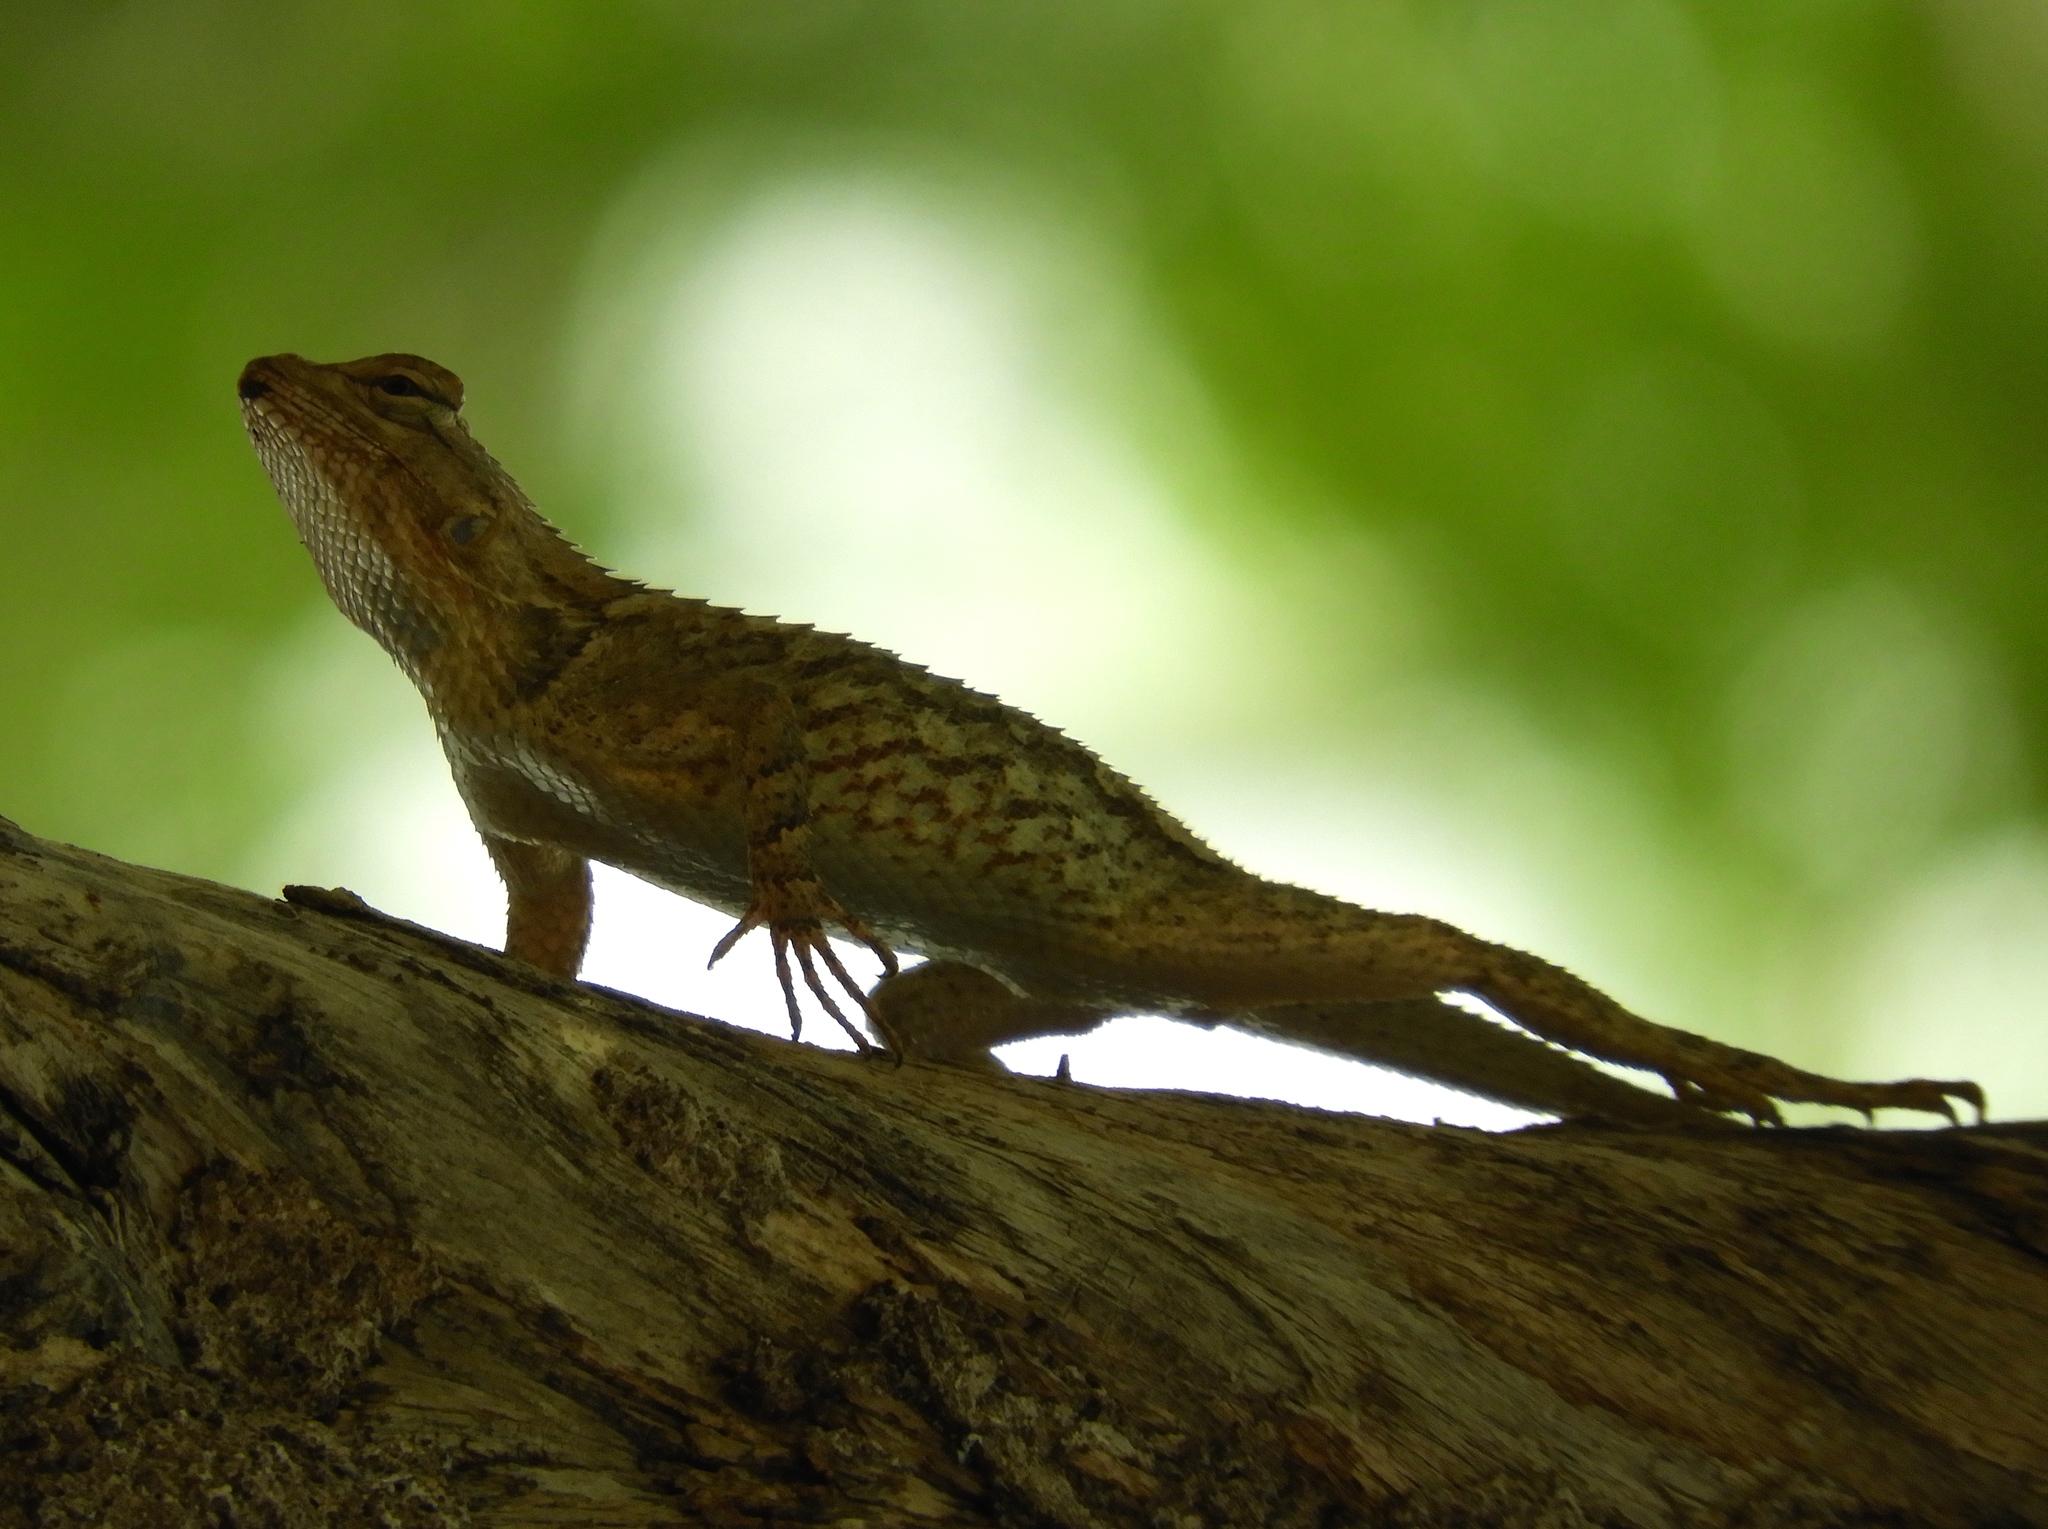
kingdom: Animalia
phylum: Chordata
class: Squamata
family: Phrynosomatidae
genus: Sceloporus
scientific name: Sceloporus clarkii
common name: Clark's spiny lizard
